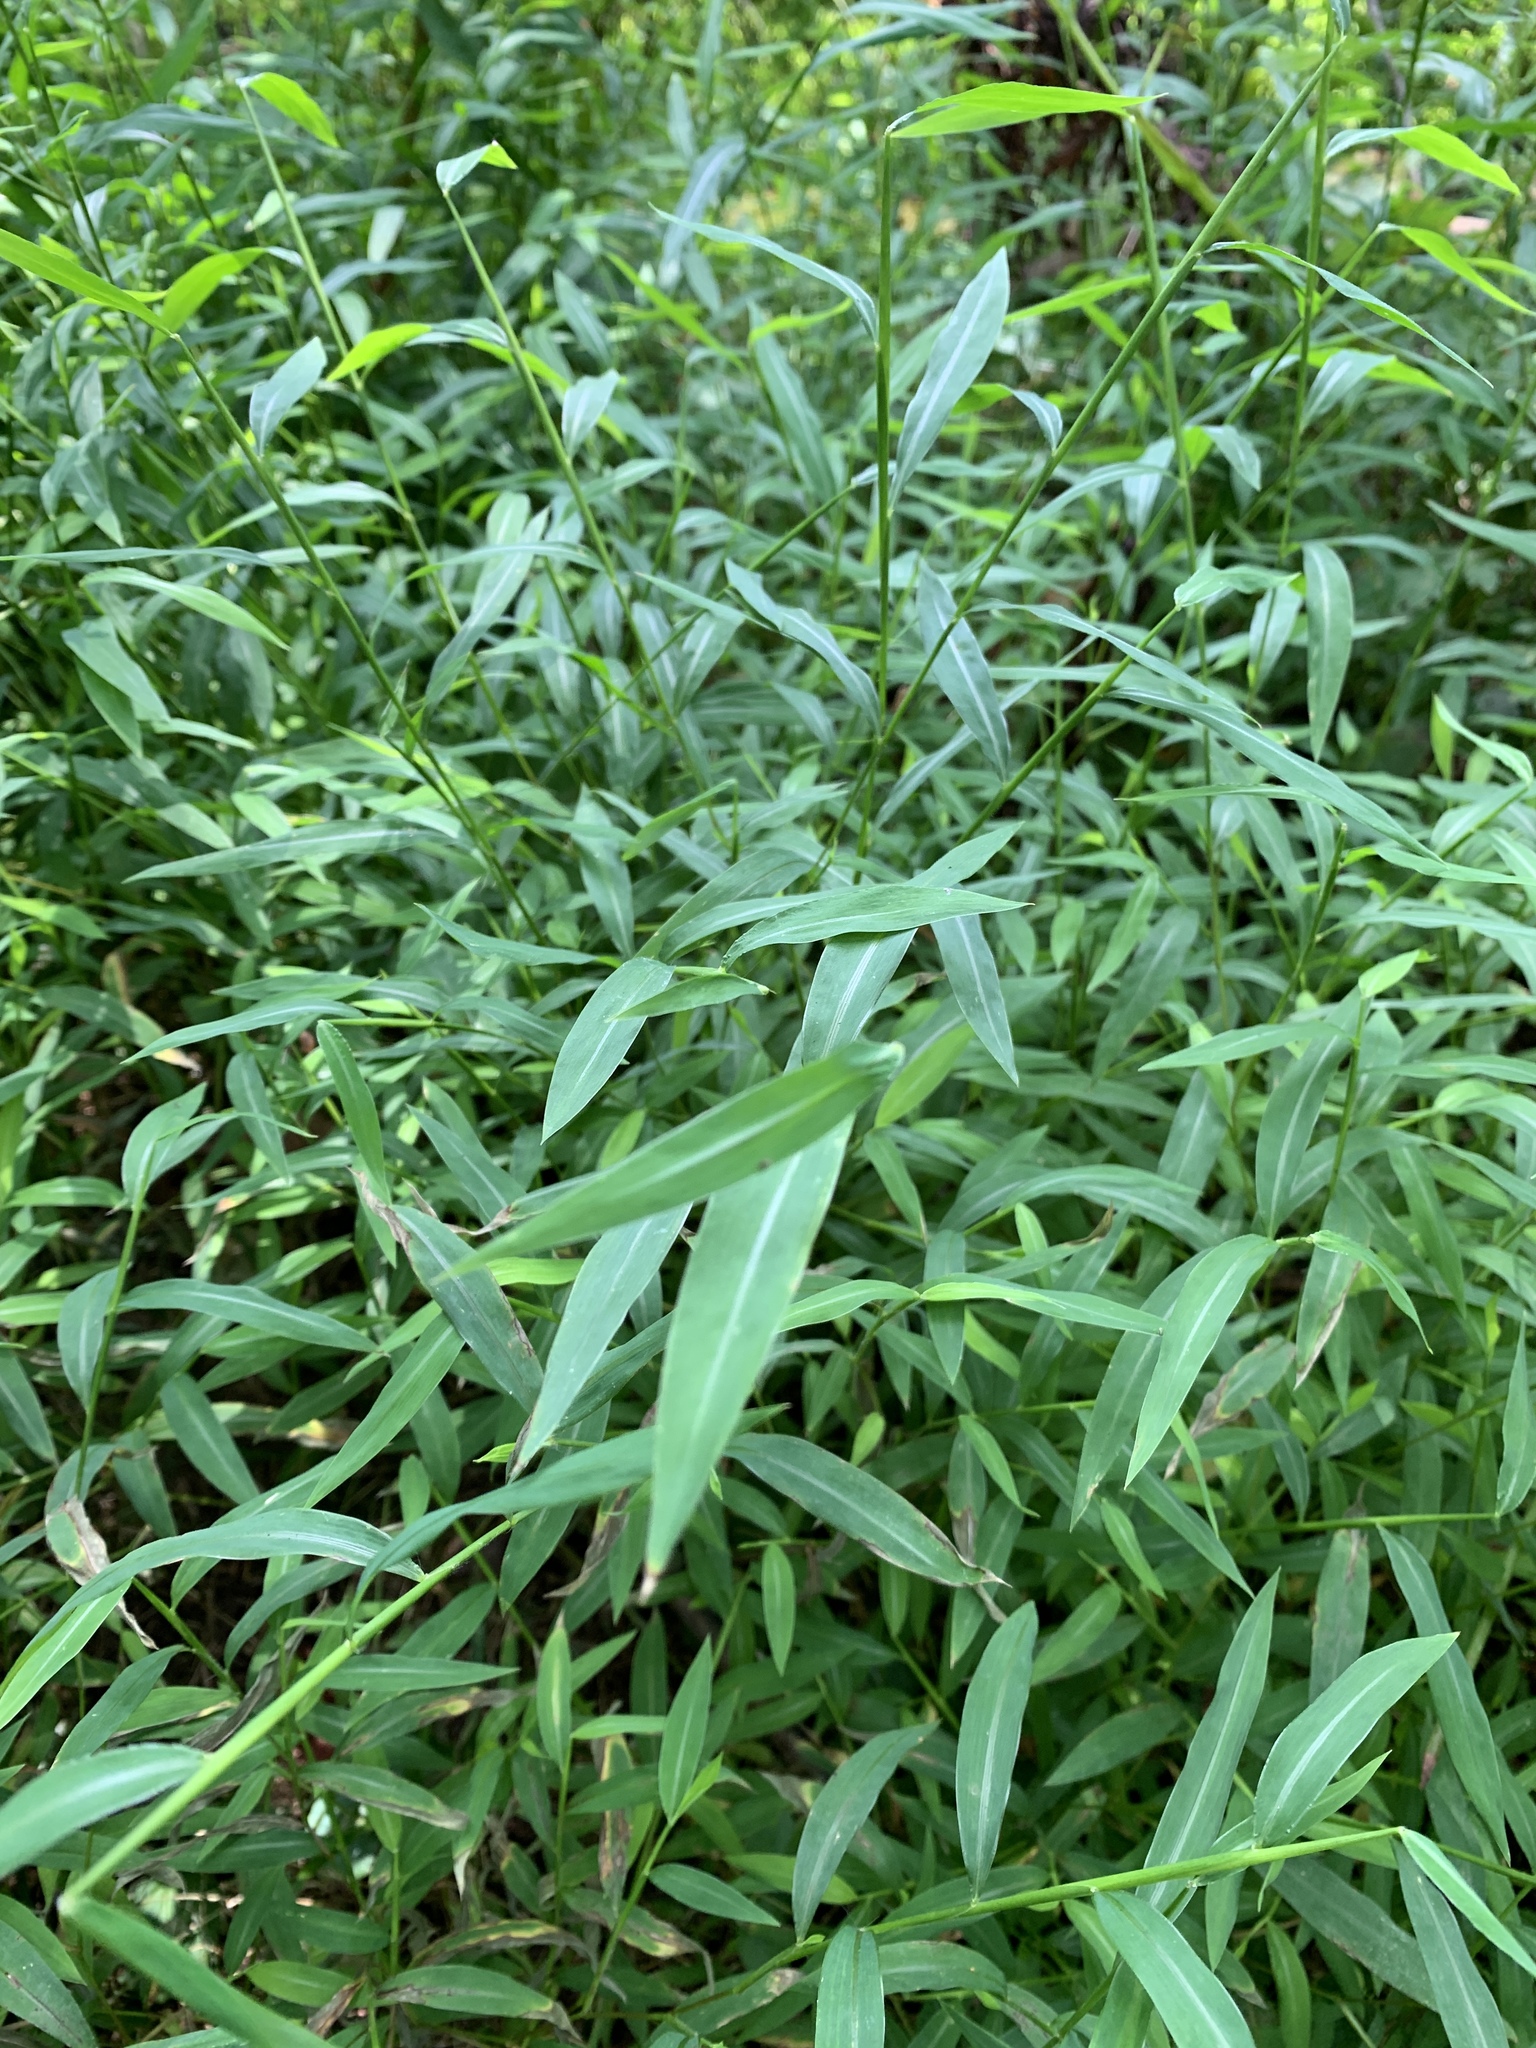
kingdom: Plantae
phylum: Tracheophyta
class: Liliopsida
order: Poales
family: Poaceae
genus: Microstegium
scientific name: Microstegium vimineum
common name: Japanese stiltgrass
